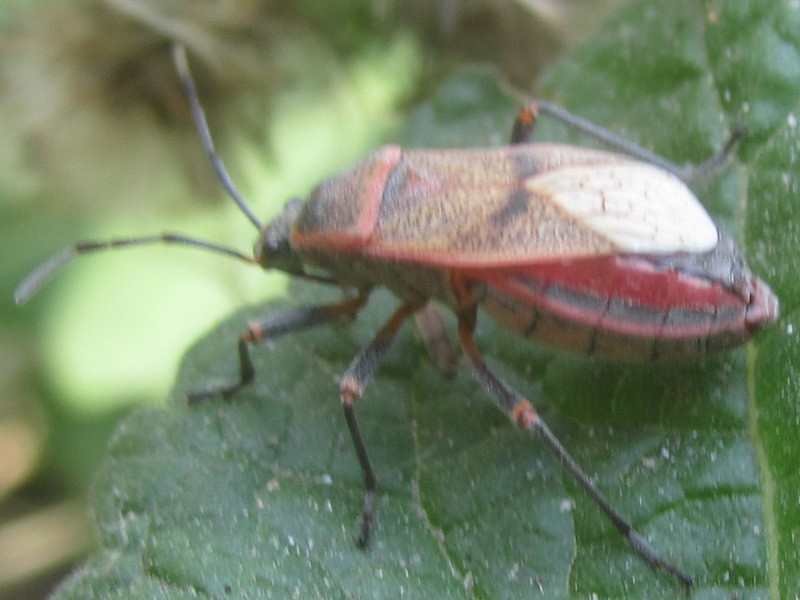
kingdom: Animalia
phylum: Arthropoda
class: Insecta
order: Hemiptera
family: Largidae
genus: Largus
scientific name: Largus maculatus
